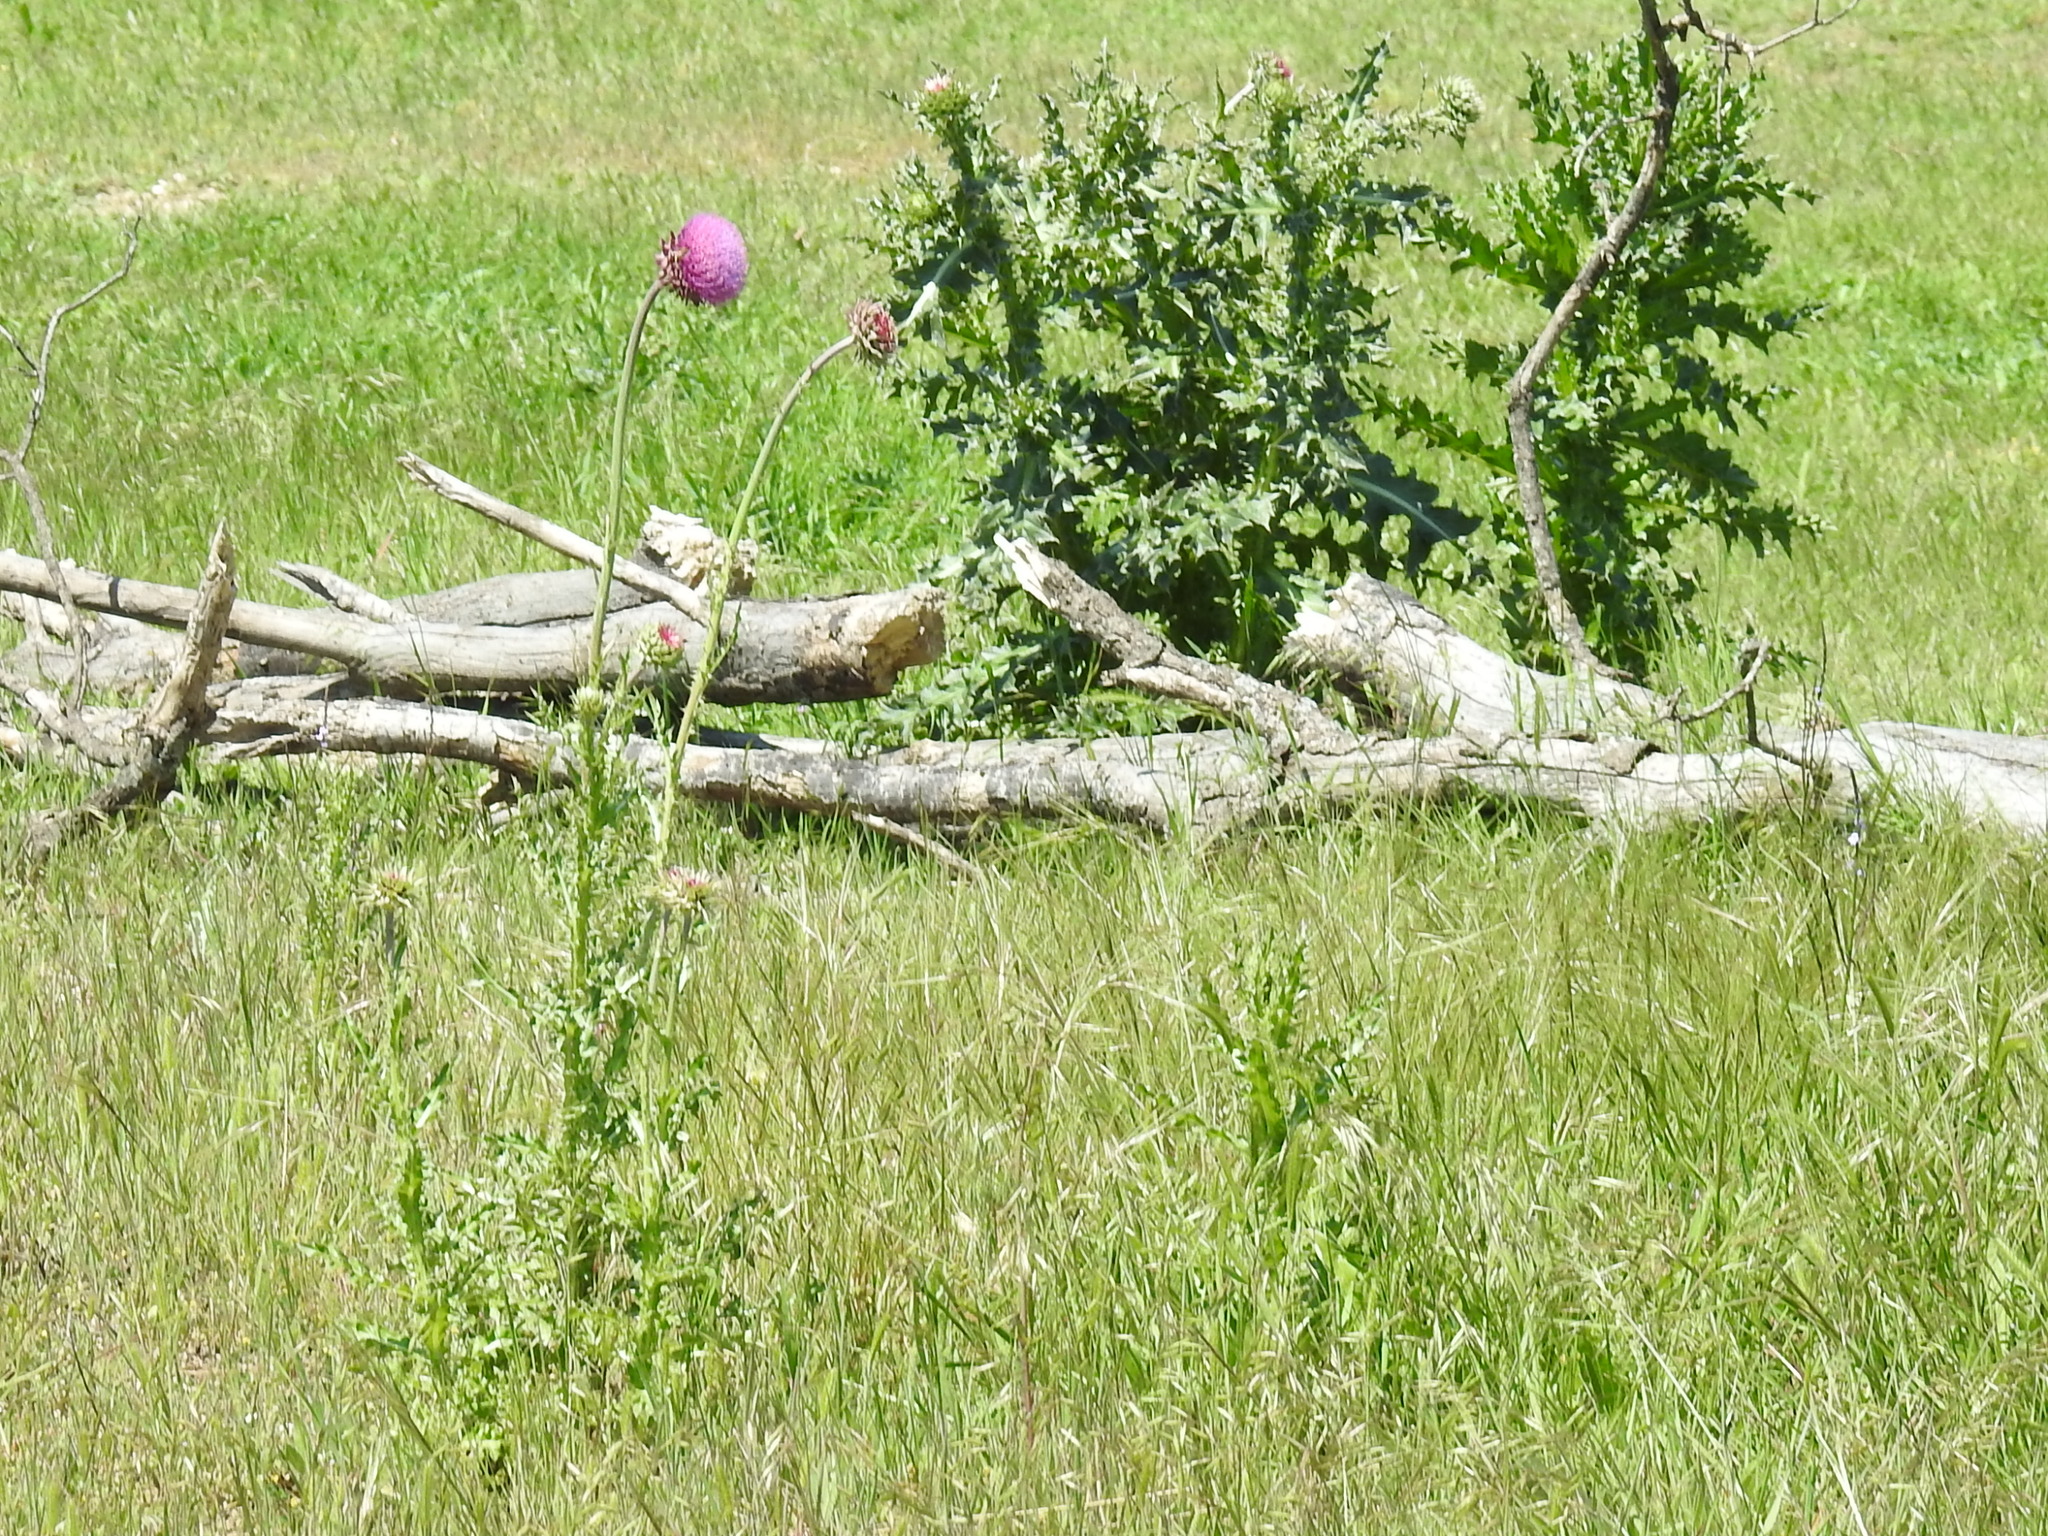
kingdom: Plantae
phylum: Tracheophyta
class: Magnoliopsida
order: Asterales
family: Asteraceae
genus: Carduus
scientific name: Carduus nutans
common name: Musk thistle
